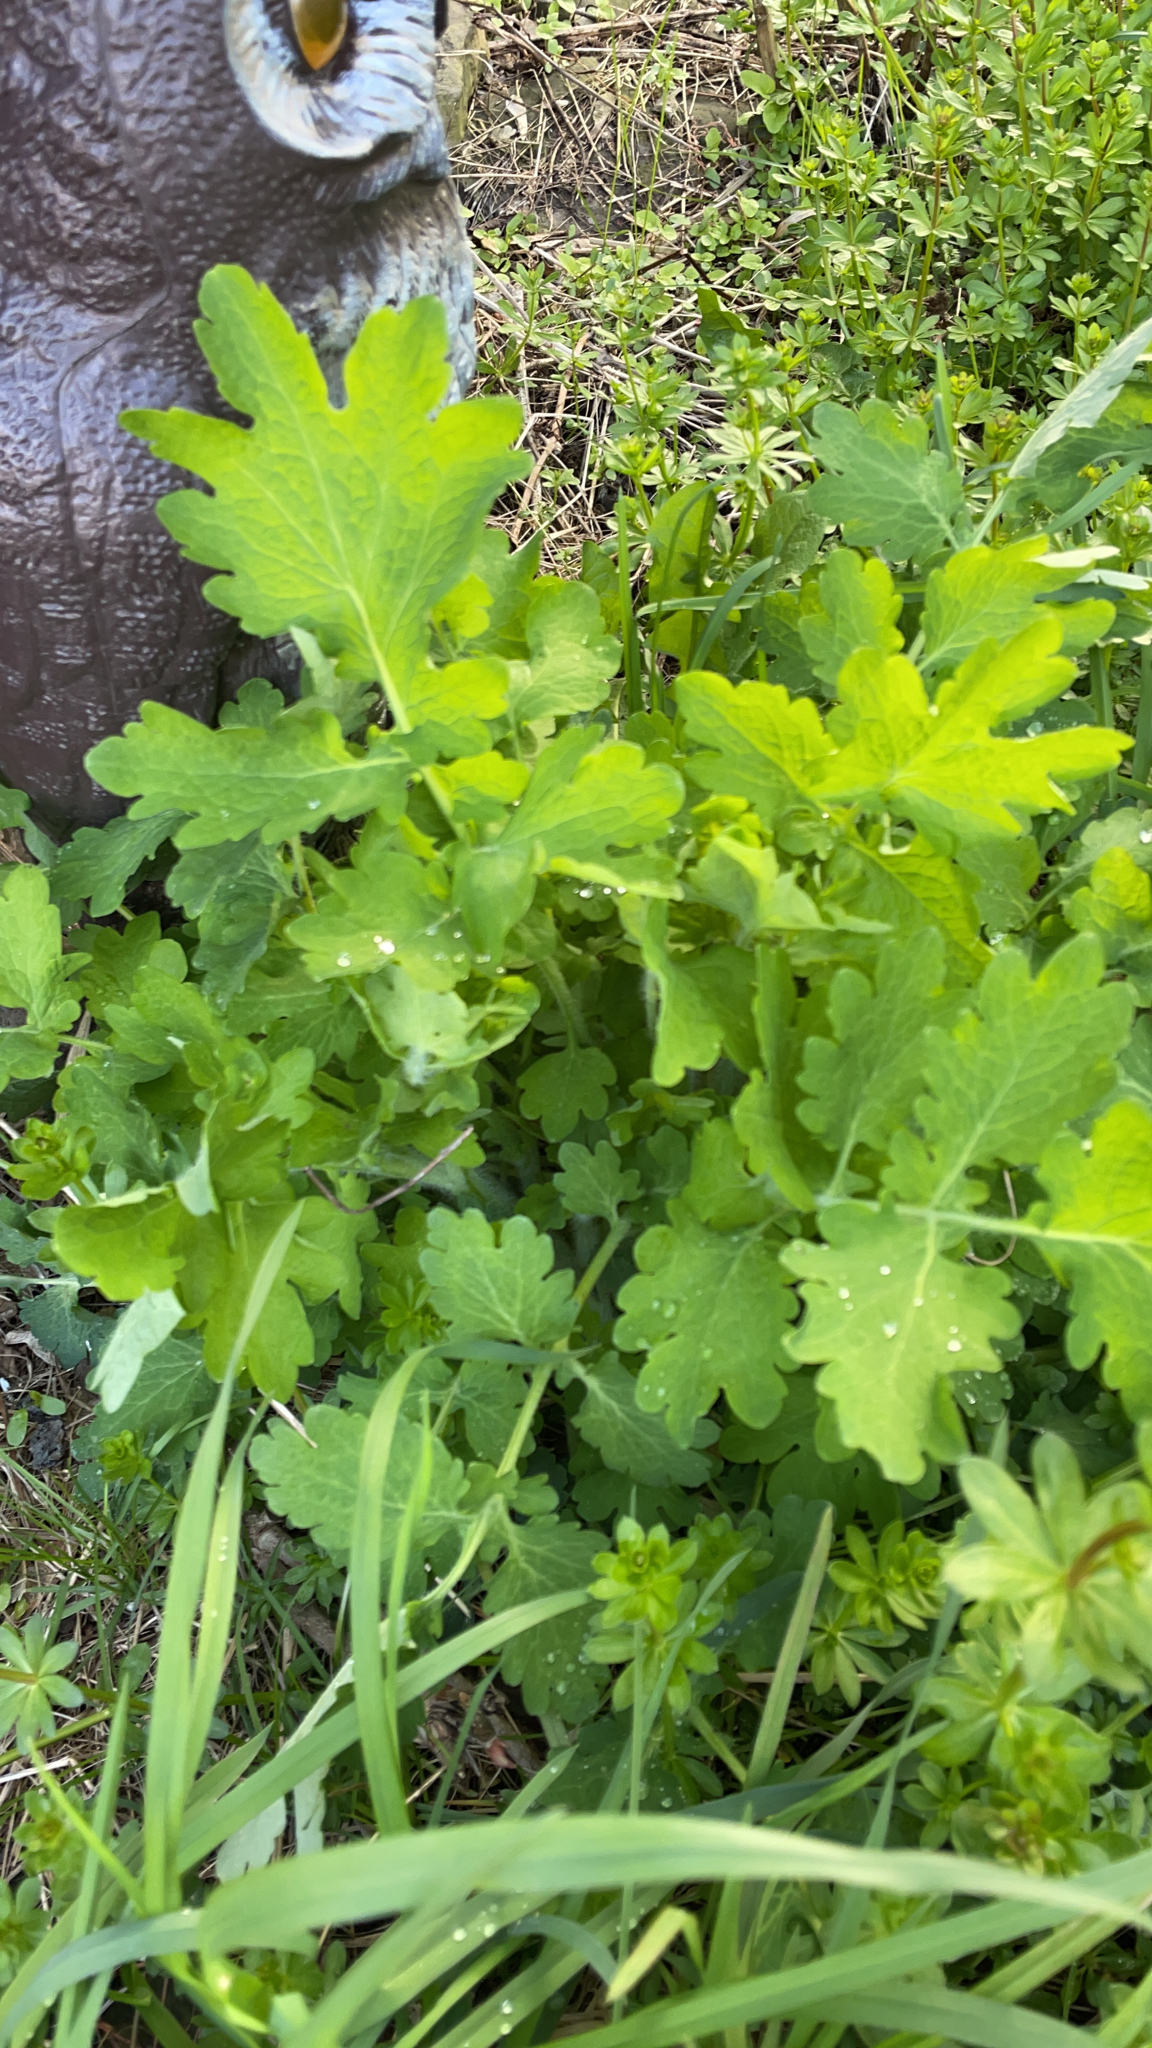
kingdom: Plantae
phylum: Tracheophyta
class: Magnoliopsida
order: Ranunculales
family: Papaveraceae
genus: Chelidonium
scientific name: Chelidonium majus
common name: Greater celandine
